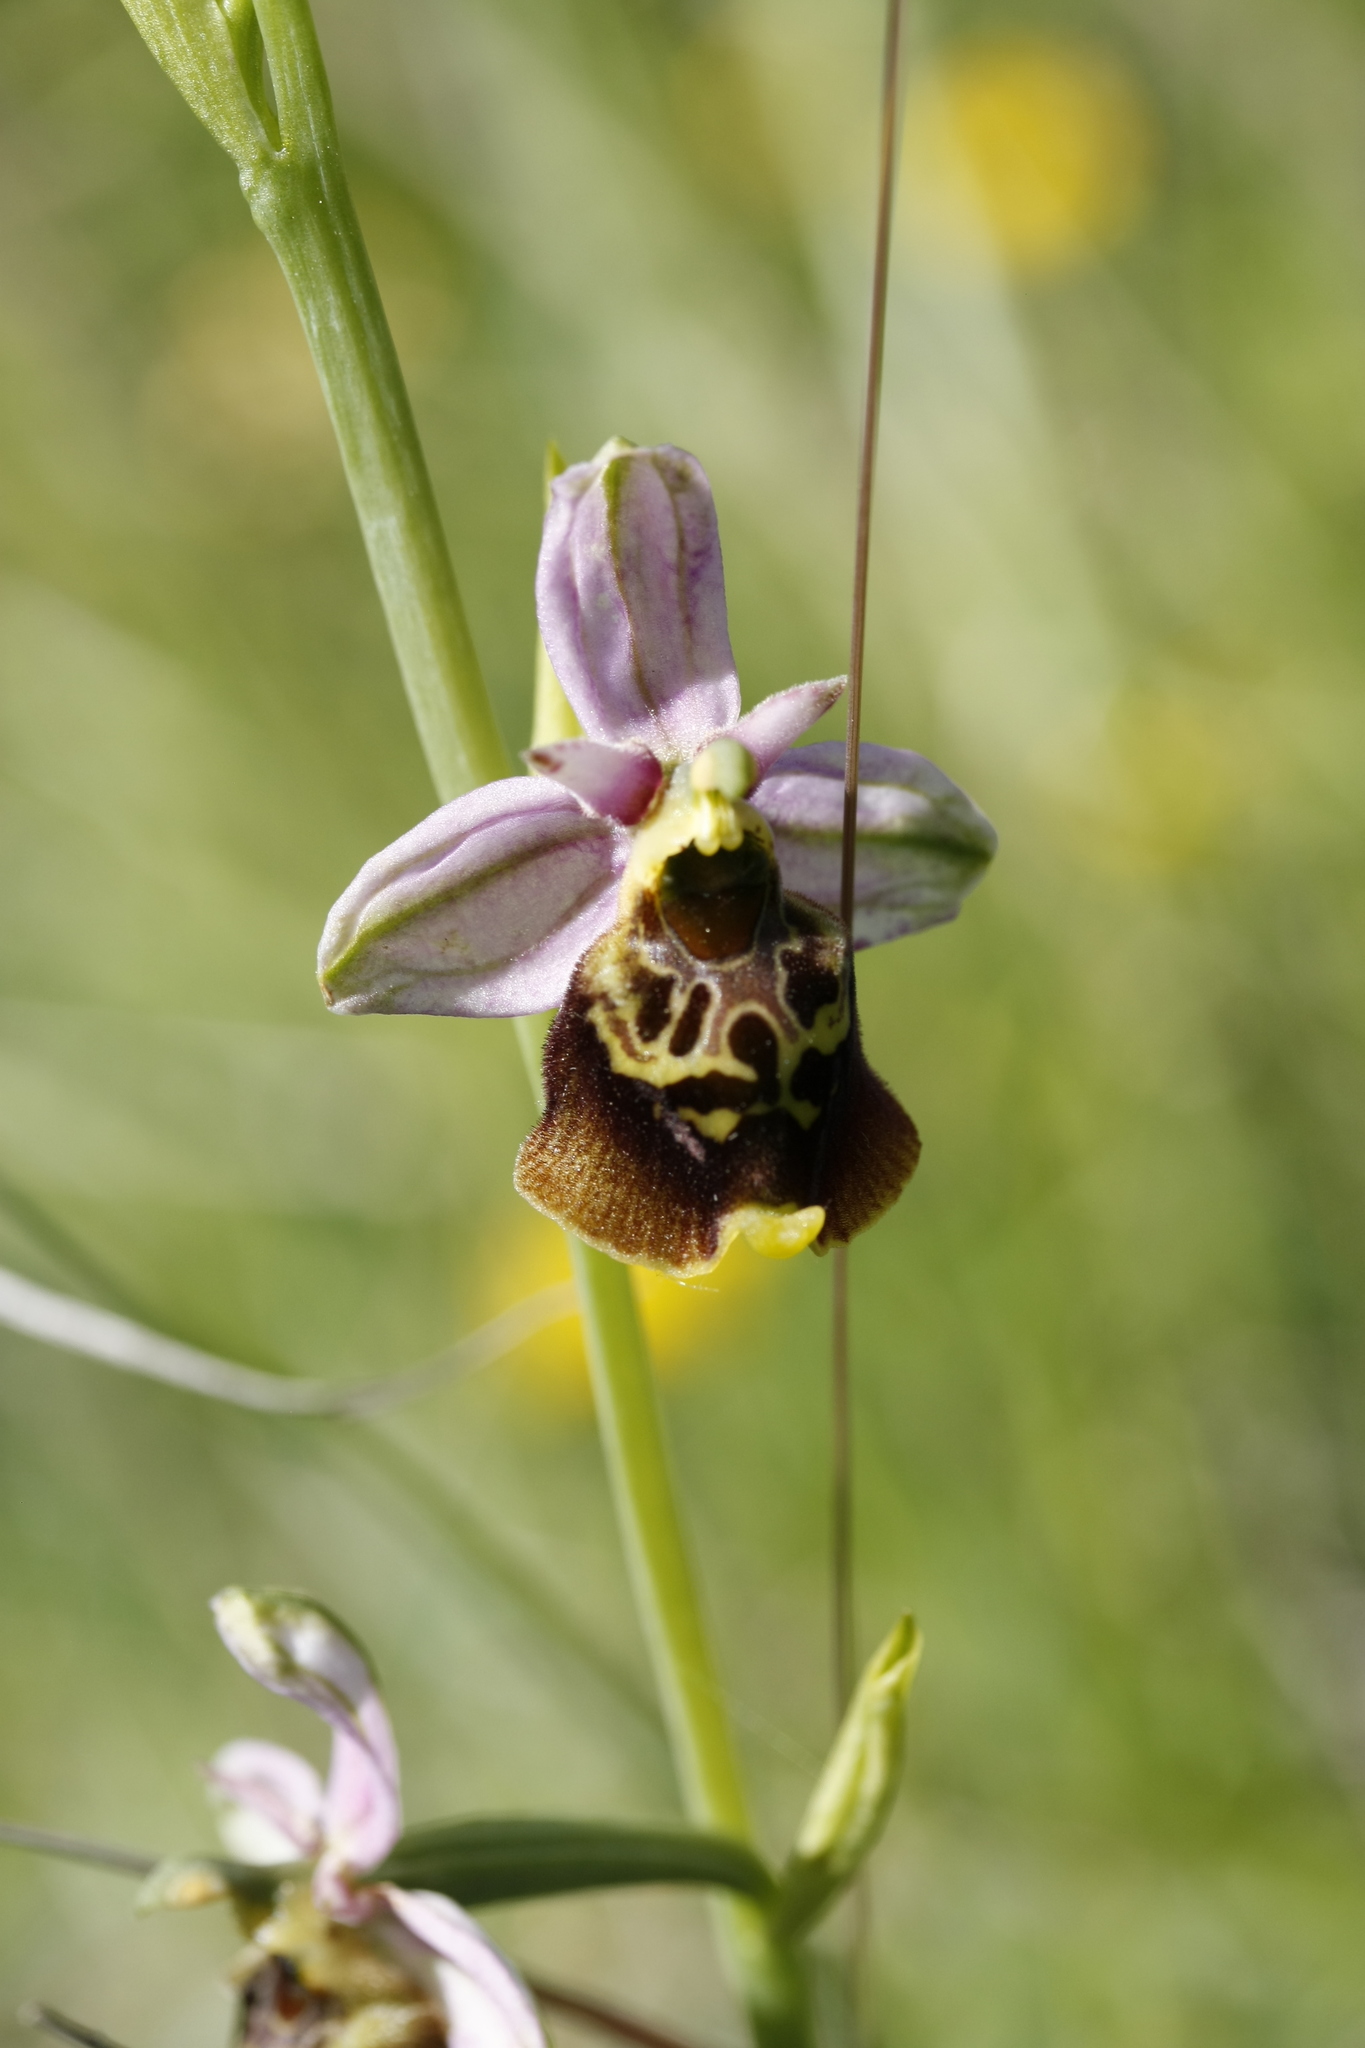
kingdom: Plantae
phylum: Tracheophyta
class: Liliopsida
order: Asparagales
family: Orchidaceae
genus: Ophrys
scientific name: Ophrys holosericea
